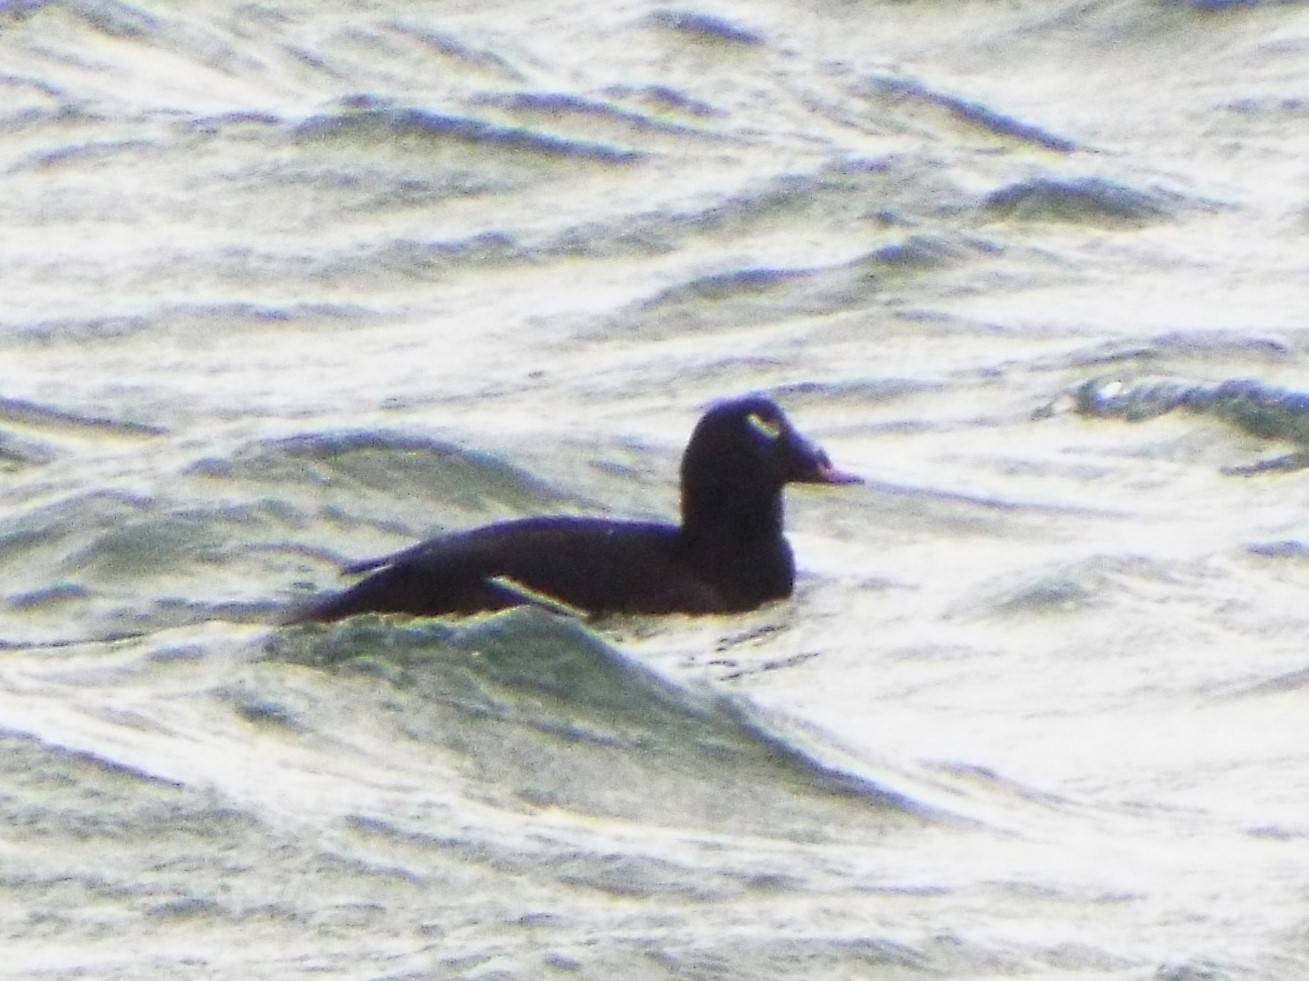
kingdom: Animalia
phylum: Chordata
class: Aves
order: Anseriformes
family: Anatidae
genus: Melanitta
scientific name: Melanitta deglandi
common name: White-winged scoter
